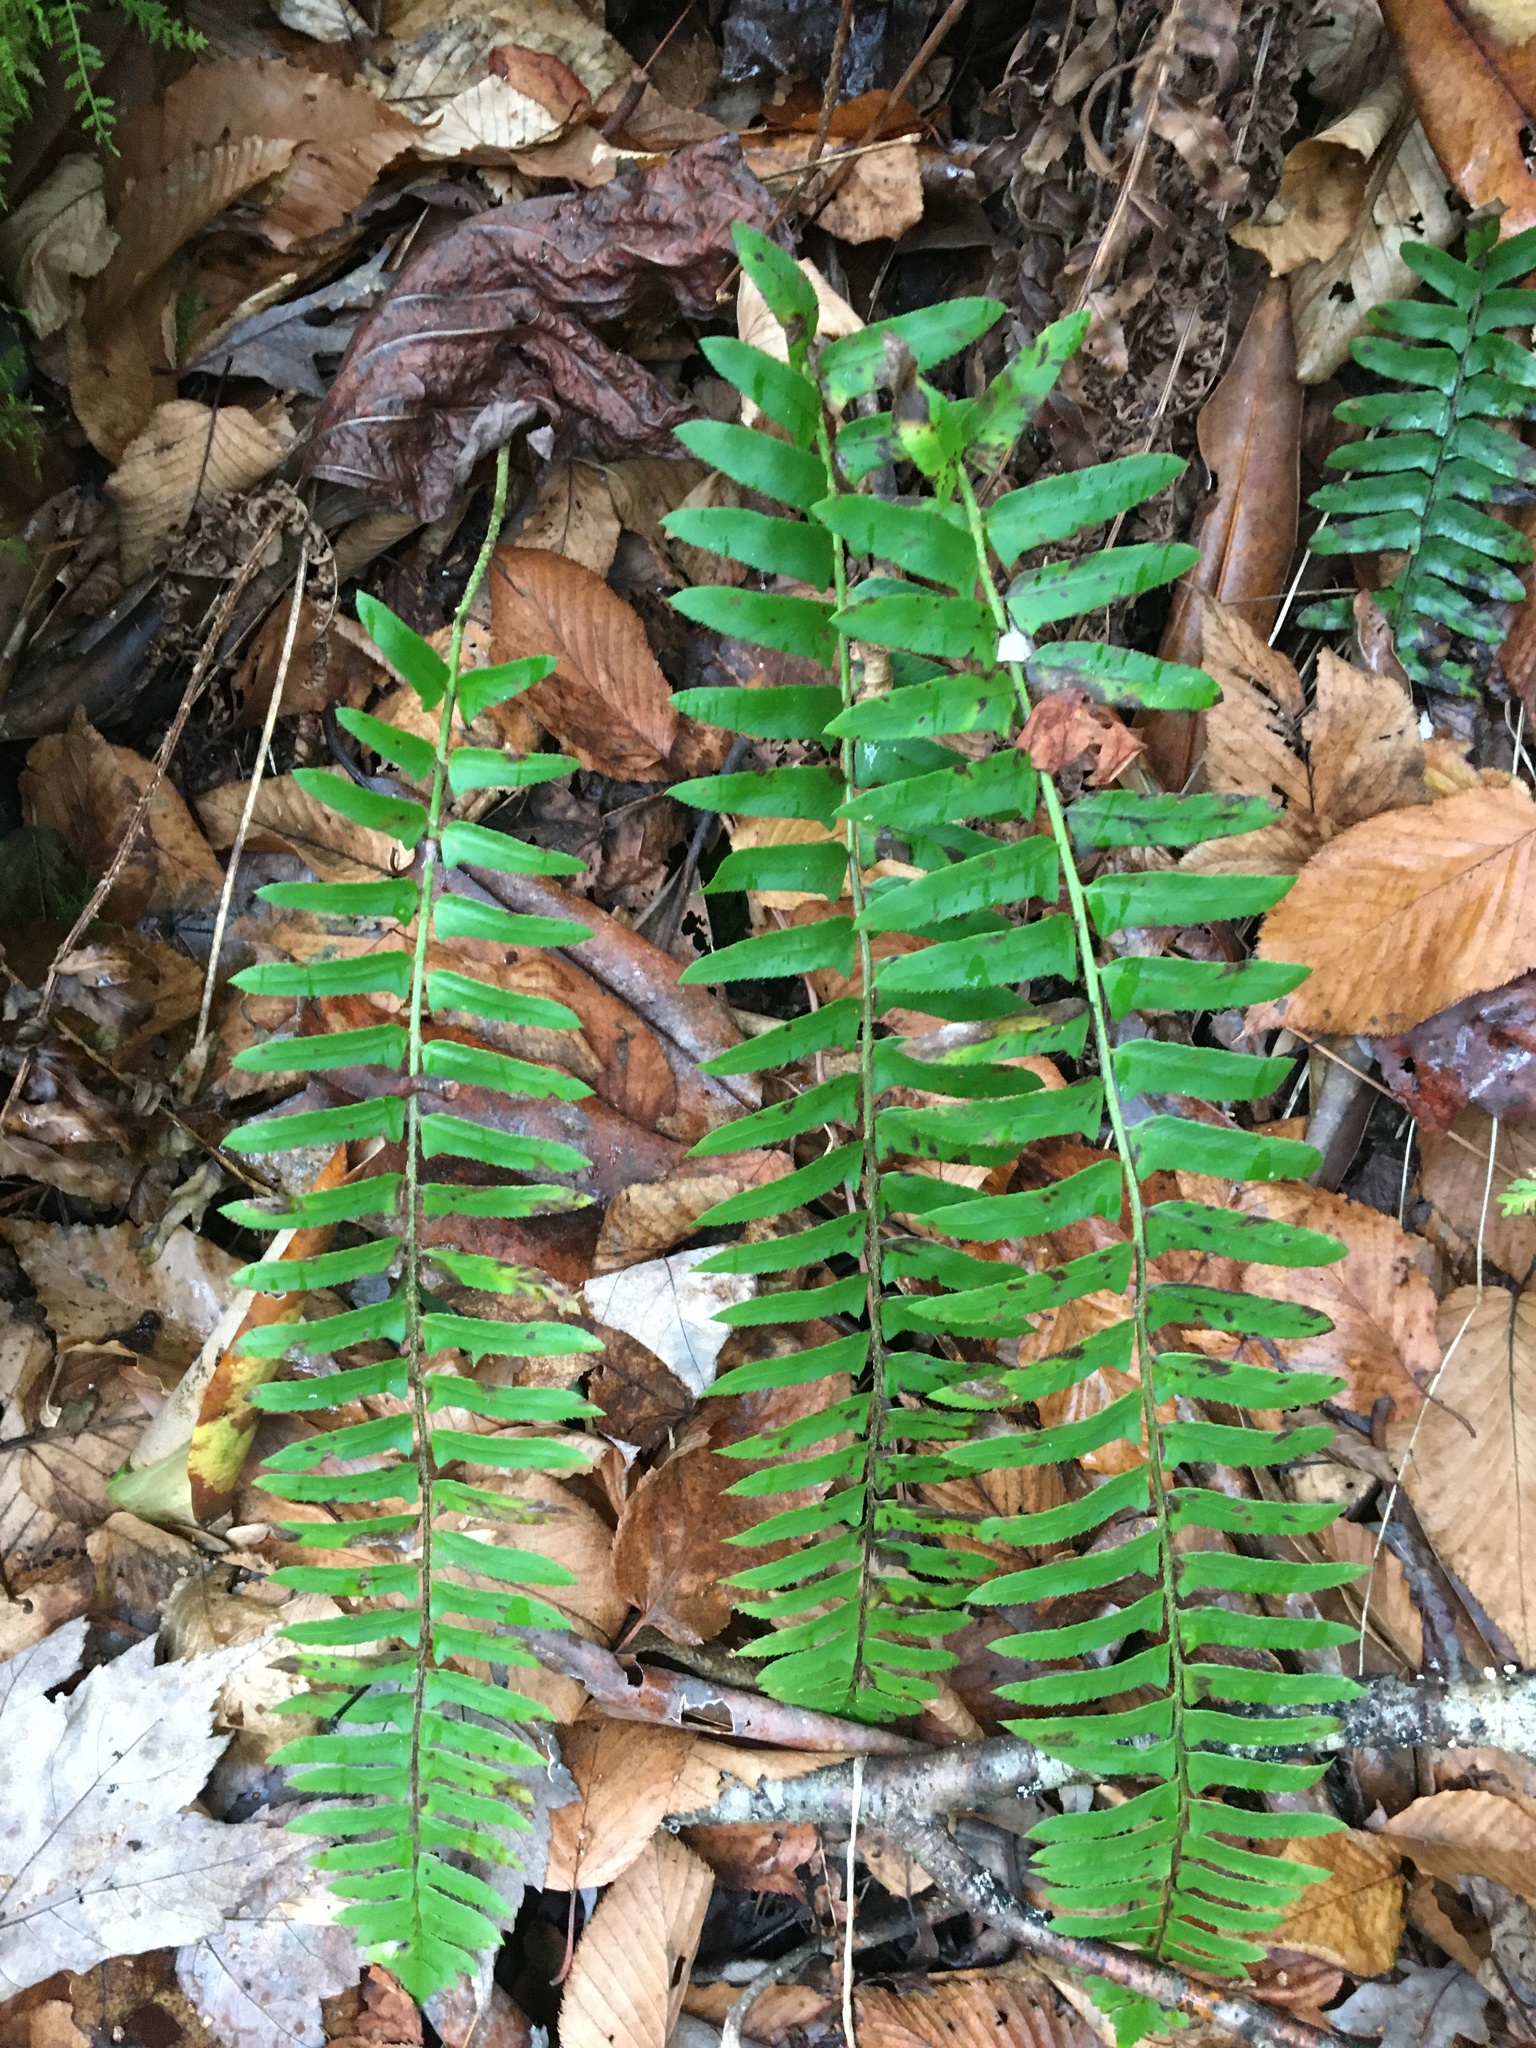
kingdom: Plantae
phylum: Tracheophyta
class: Polypodiopsida
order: Polypodiales
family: Dryopteridaceae
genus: Polystichum
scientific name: Polystichum acrostichoides
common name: Christmas fern
